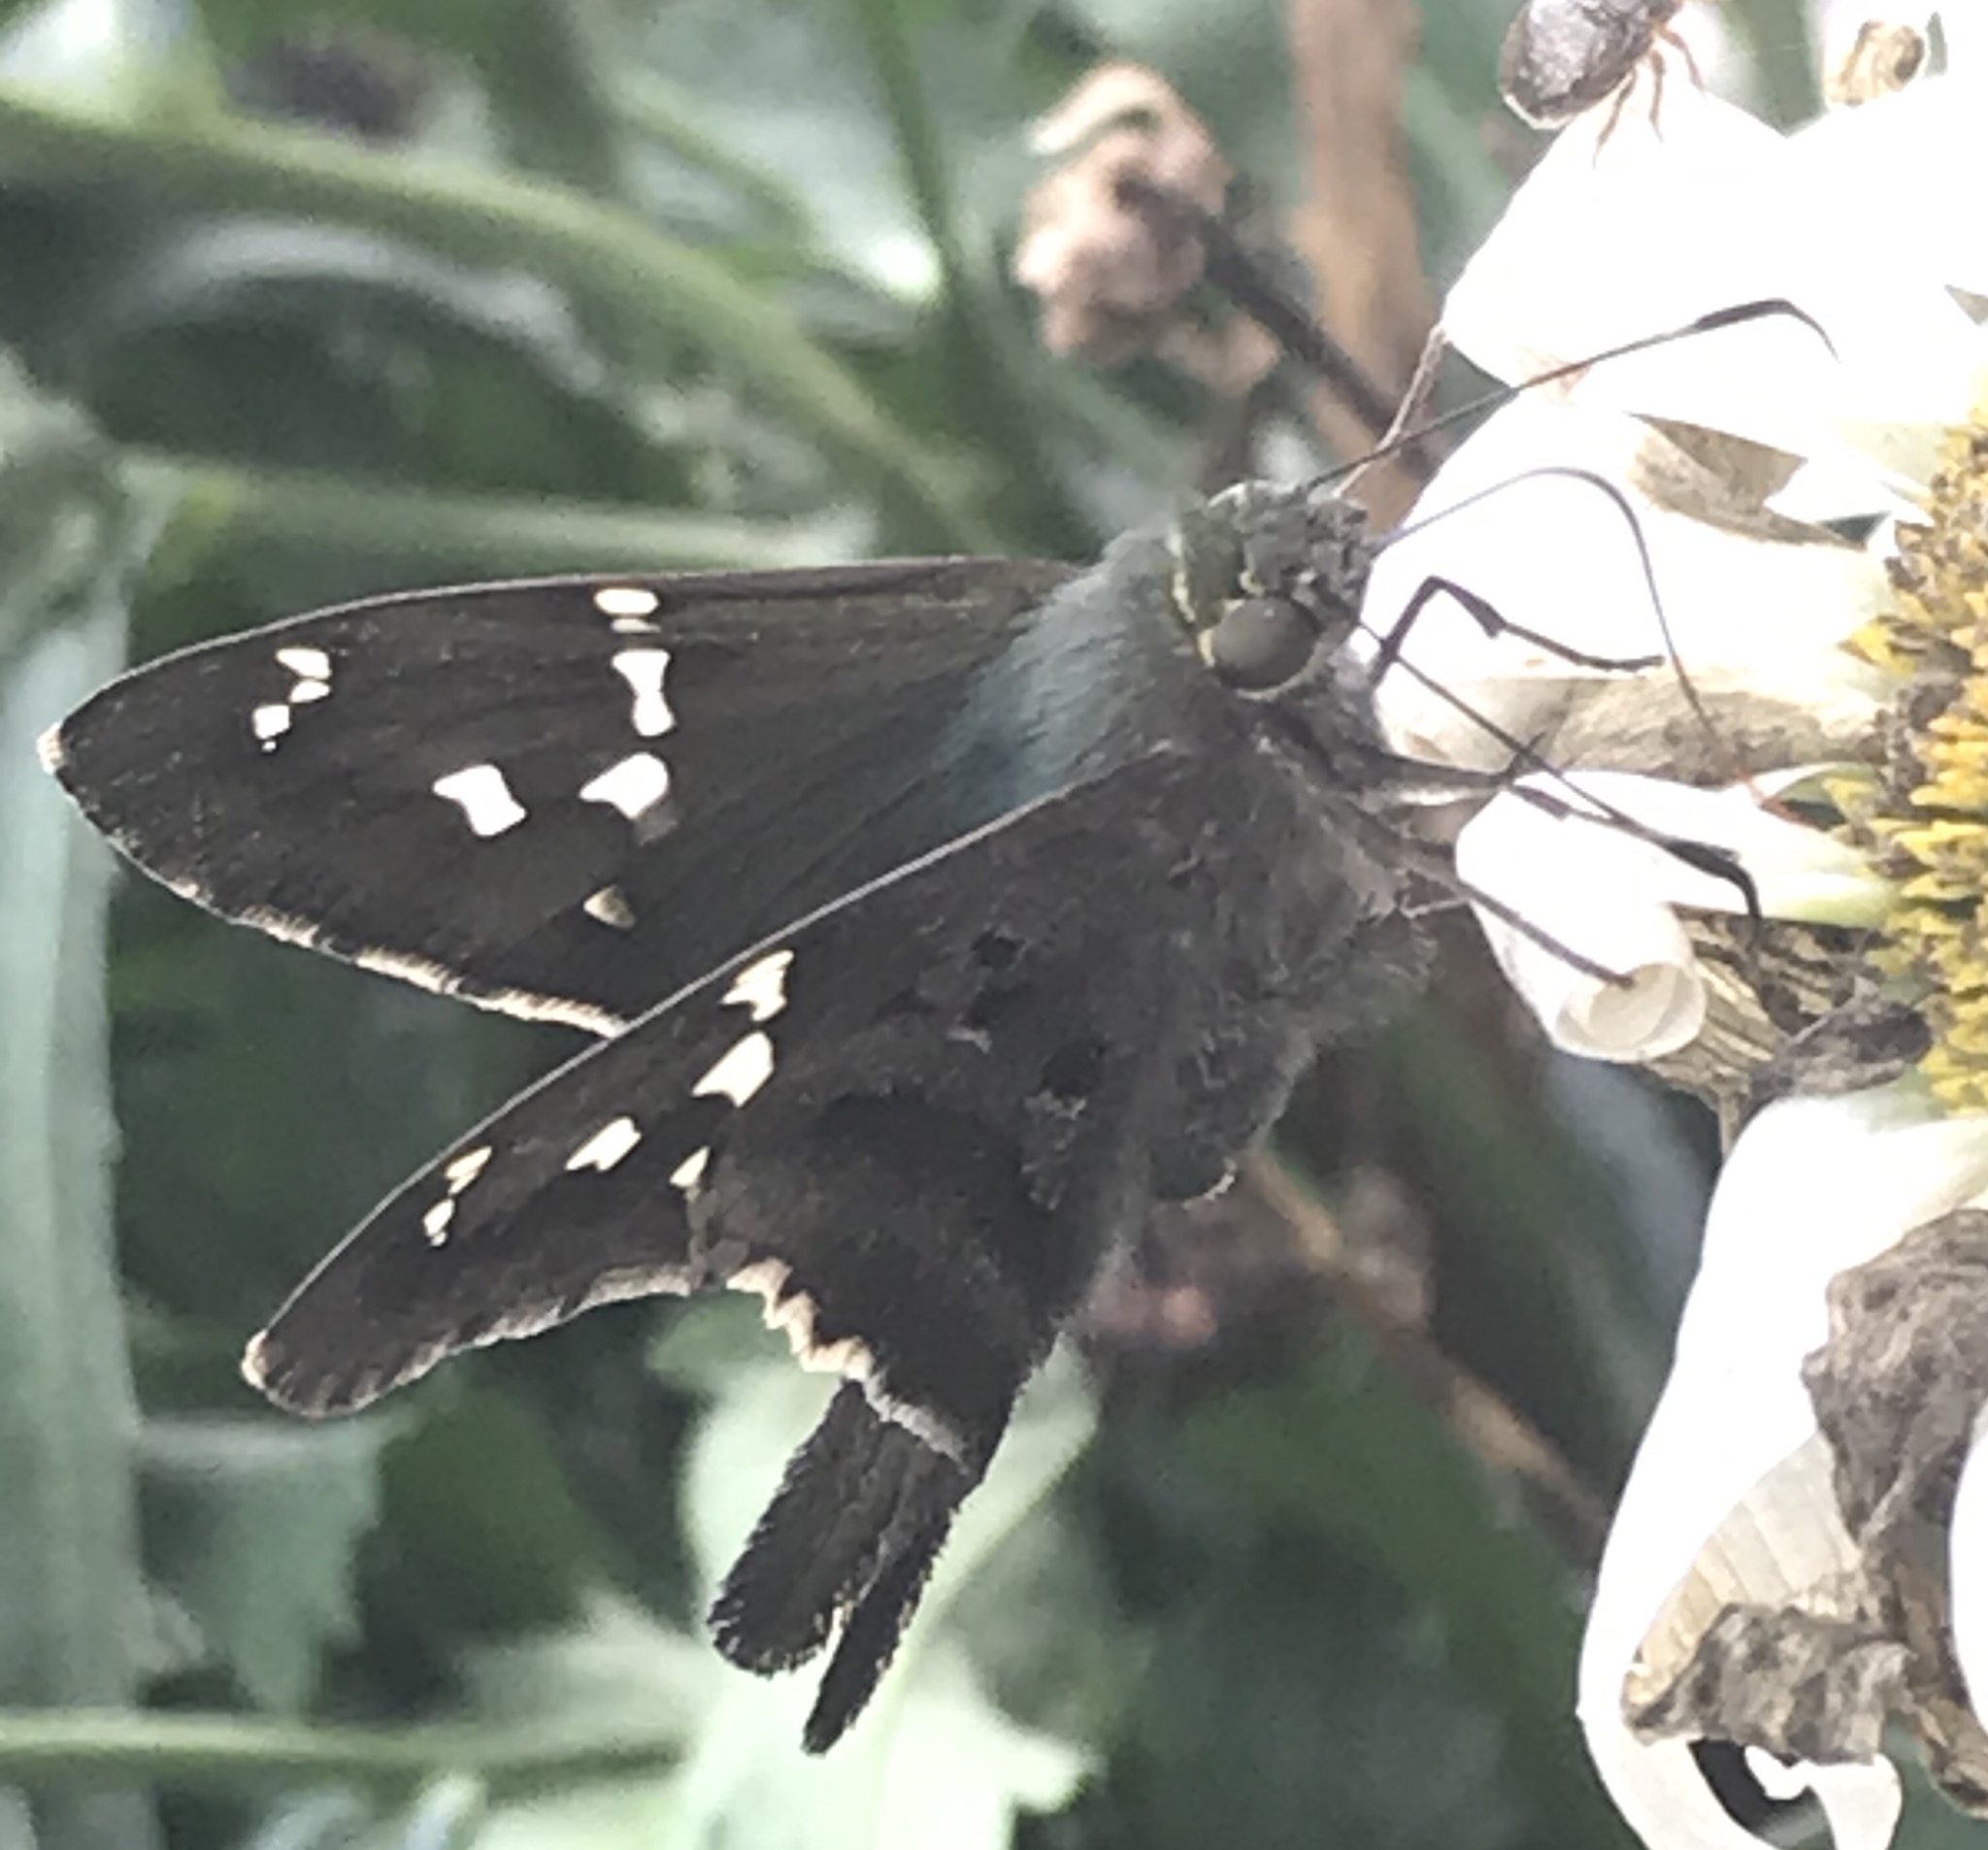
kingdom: Animalia
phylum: Arthropoda
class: Insecta
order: Lepidoptera
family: Hesperiidae
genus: Urbanus
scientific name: Urbanus proteus
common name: Long-tailed skipper
